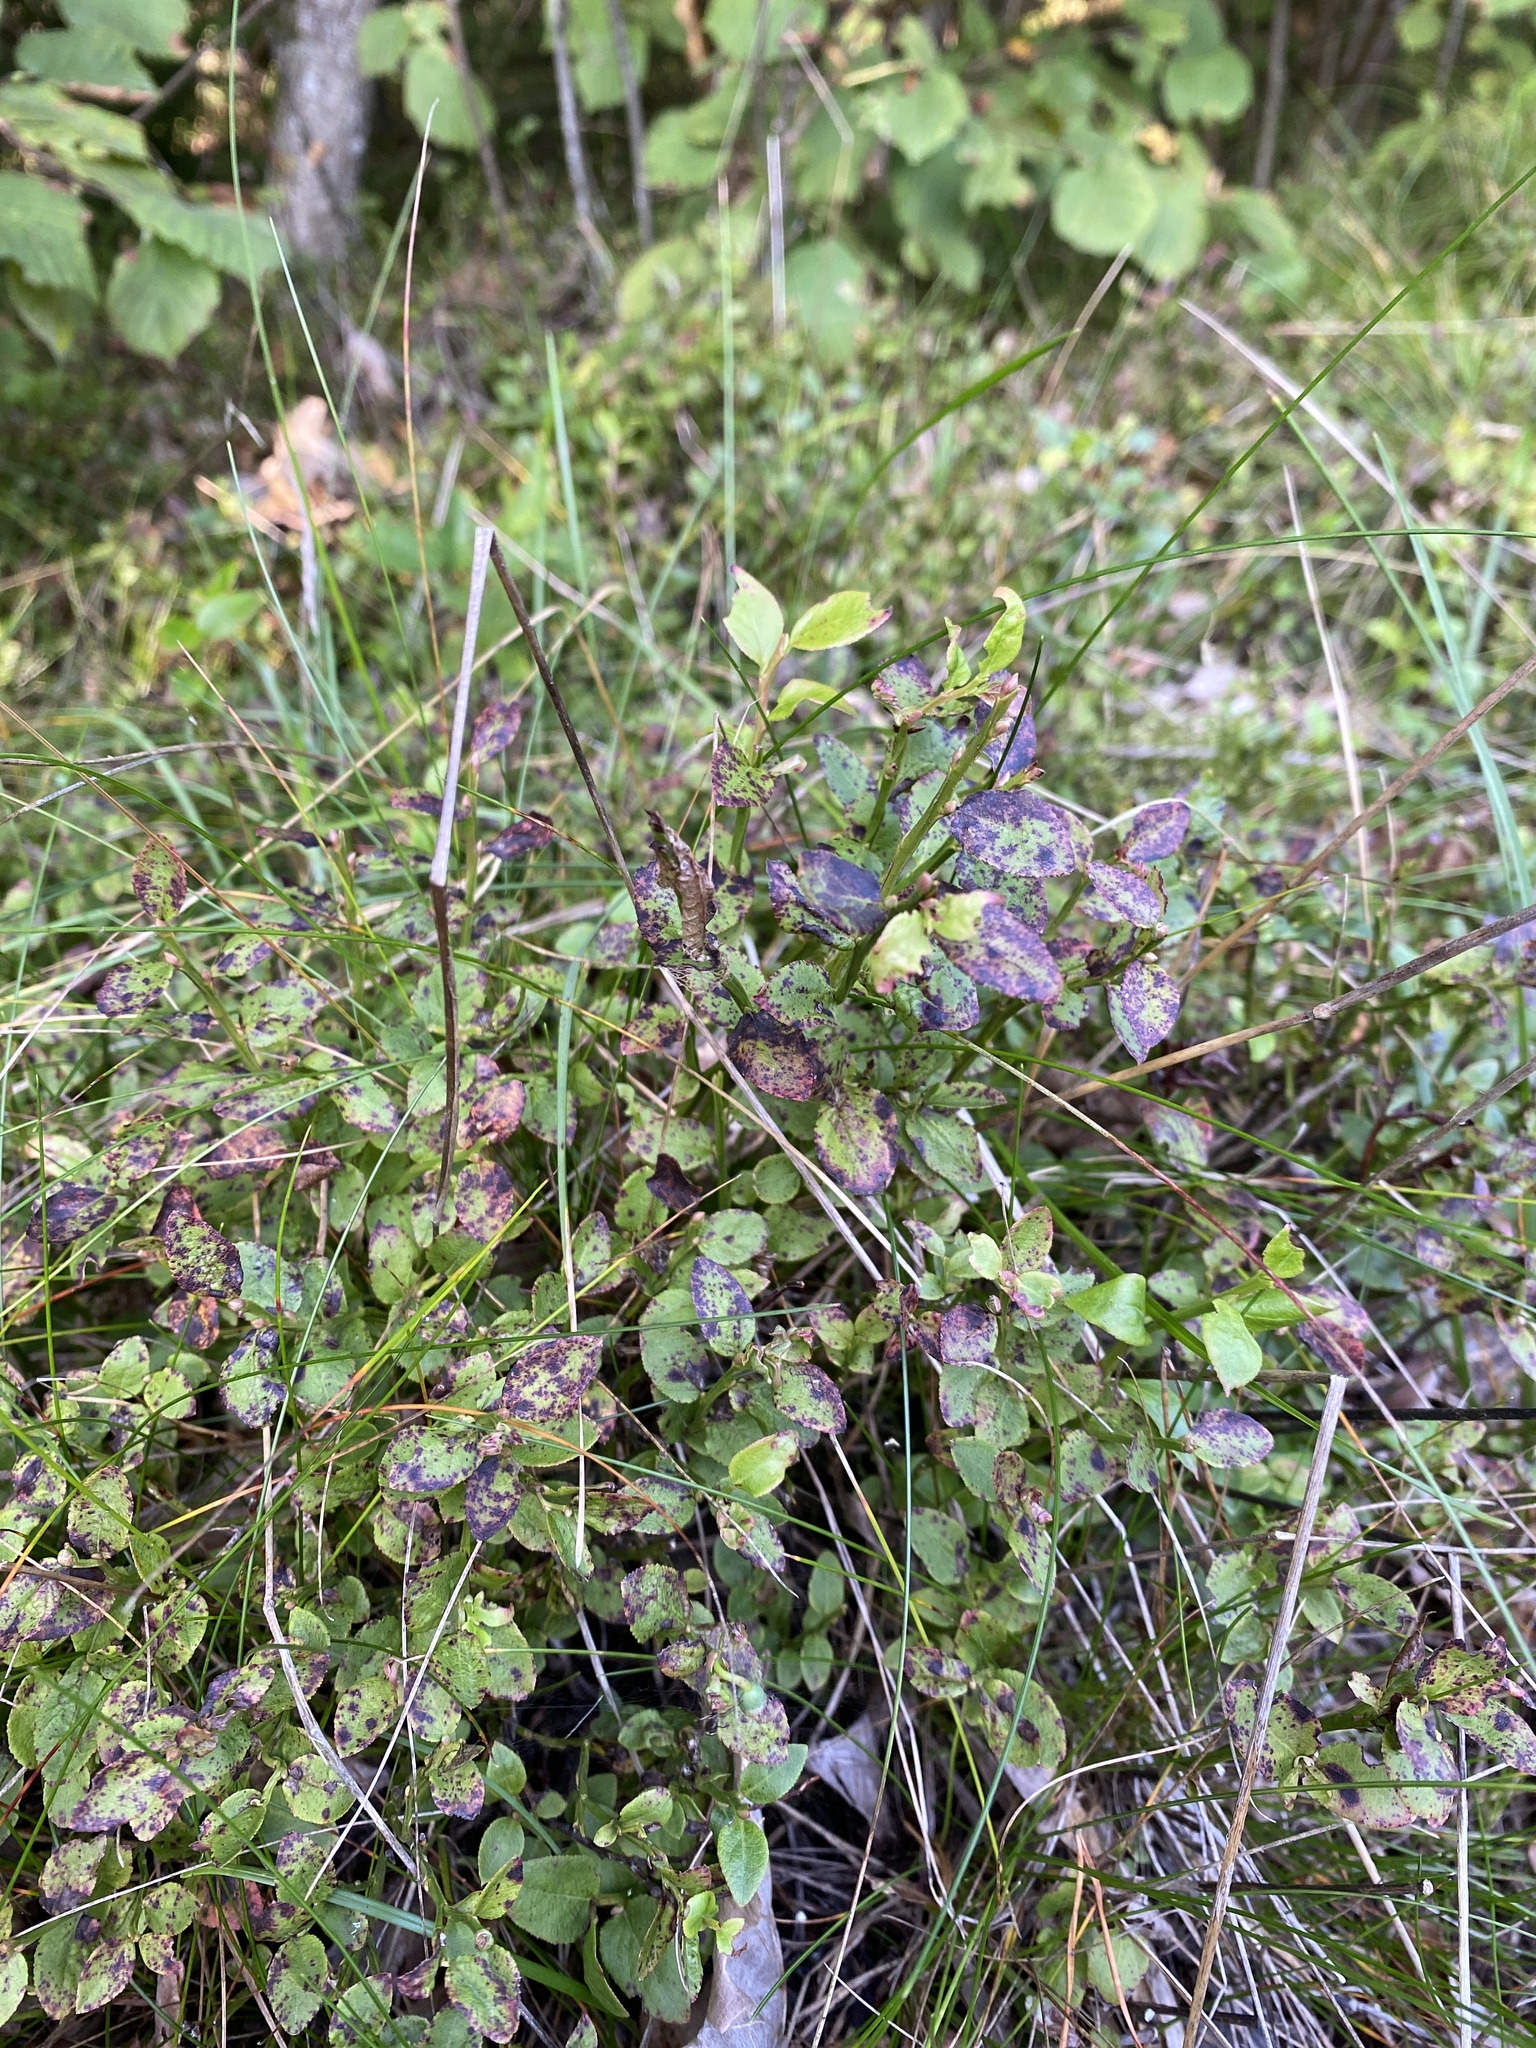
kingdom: Plantae
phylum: Tracheophyta
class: Magnoliopsida
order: Ericales
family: Ericaceae
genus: Vaccinium
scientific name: Vaccinium myrtillus
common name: Bilberry
